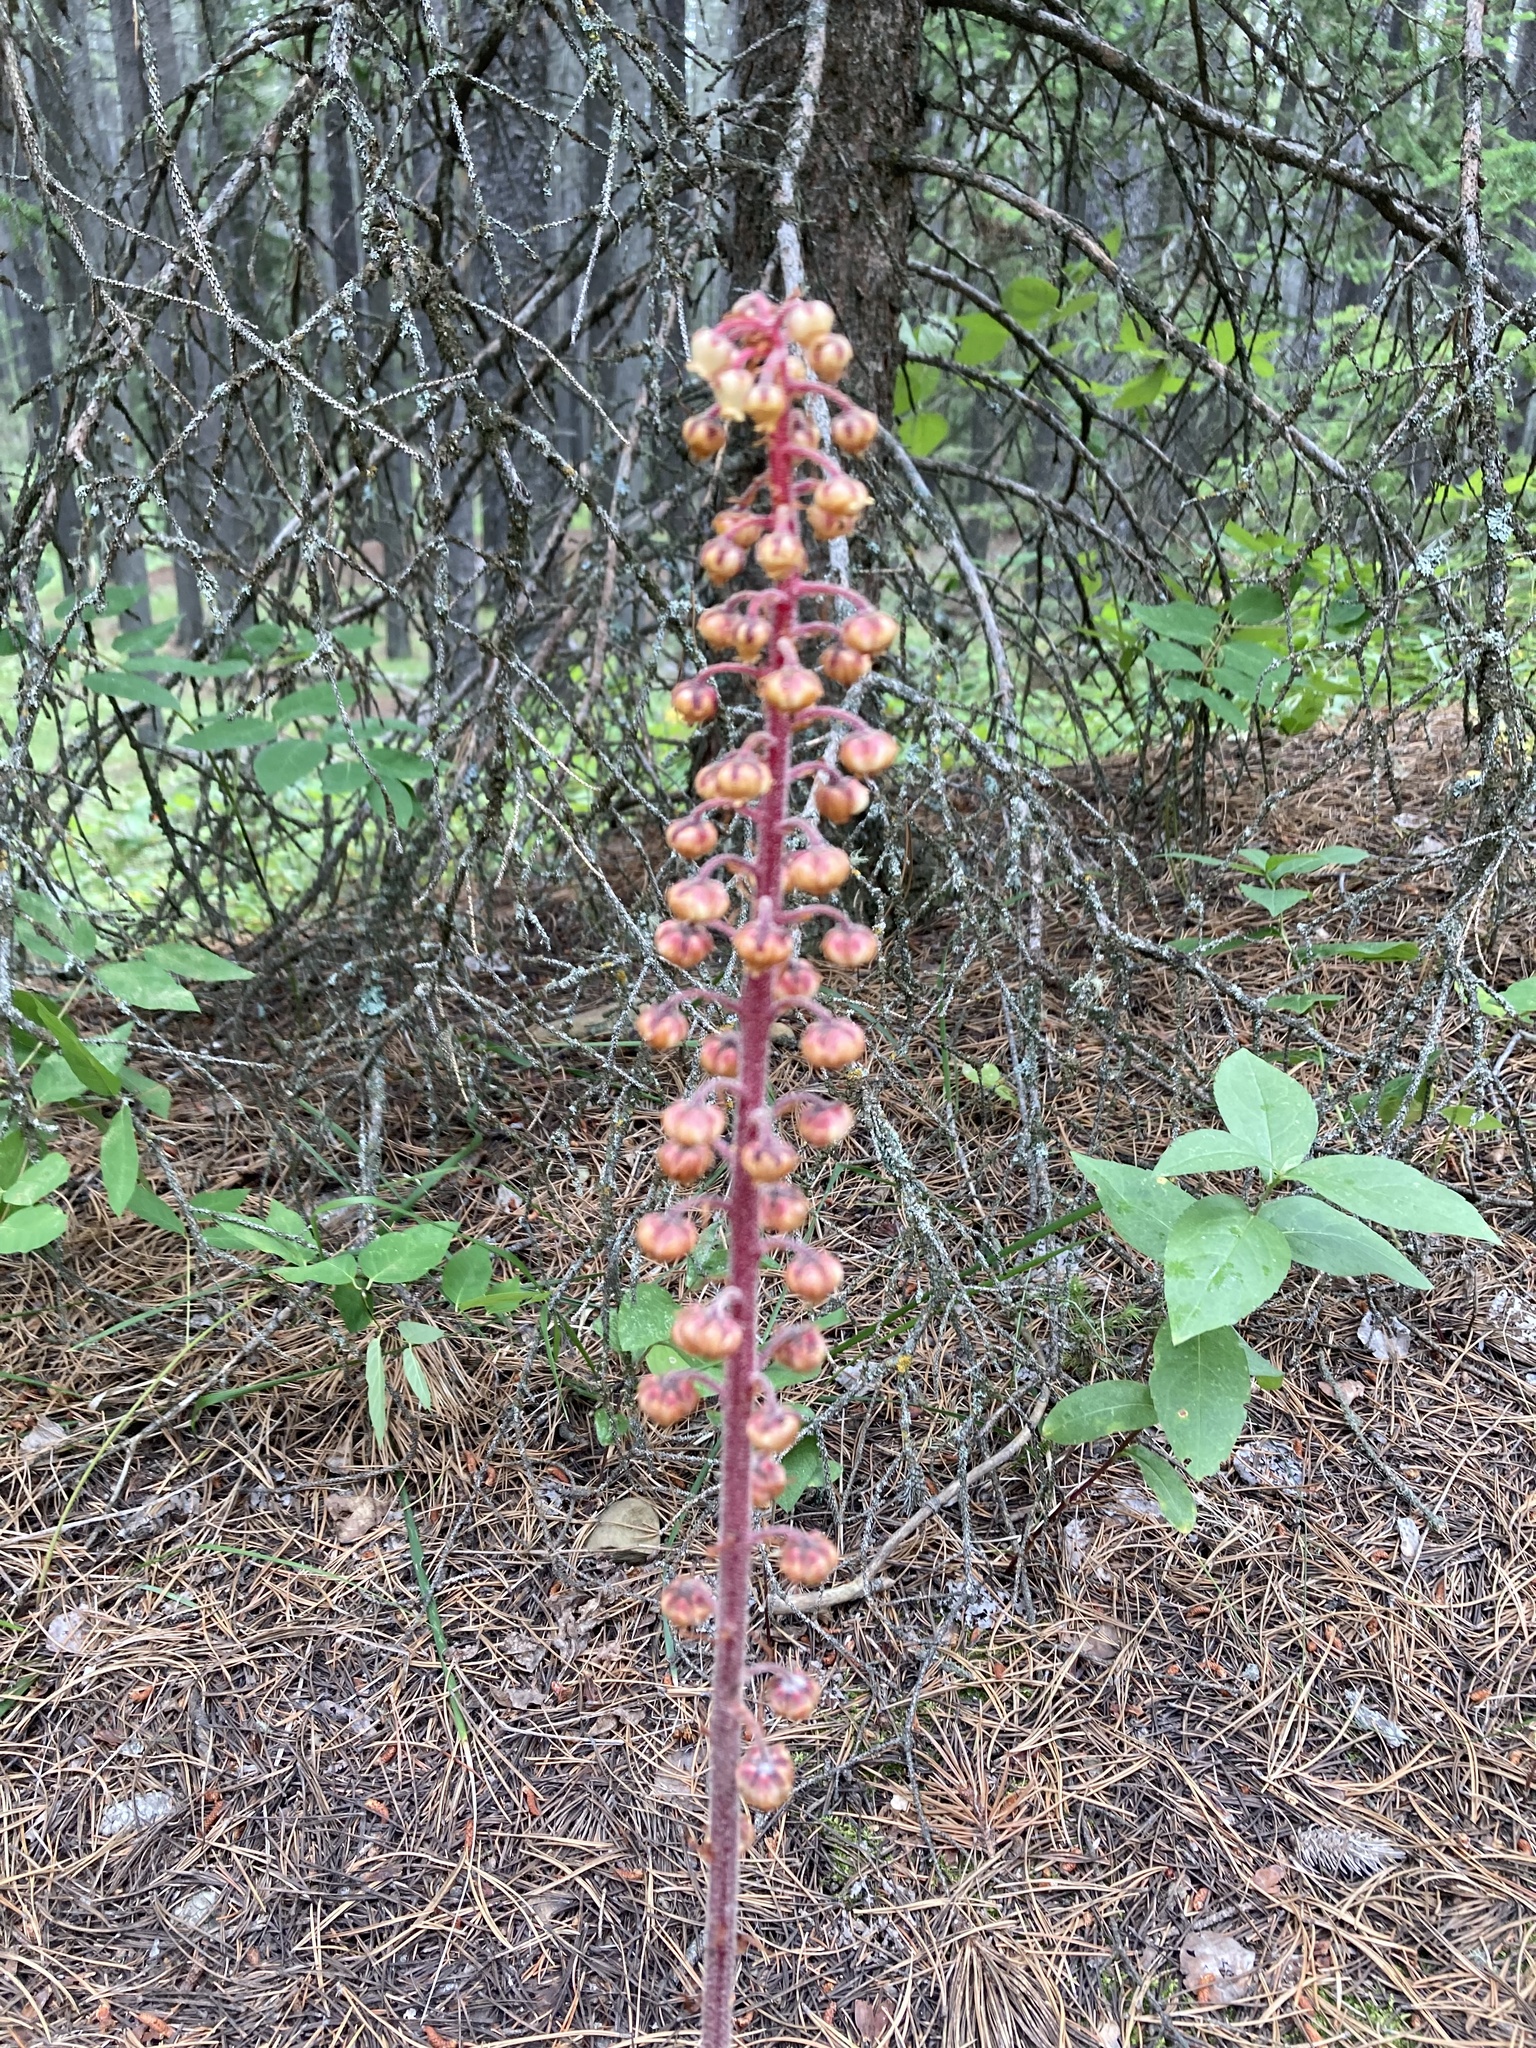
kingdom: Plantae
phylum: Tracheophyta
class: Magnoliopsida
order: Ericales
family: Ericaceae
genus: Pterospora
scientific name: Pterospora andromedea
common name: Giant bird's-nest
